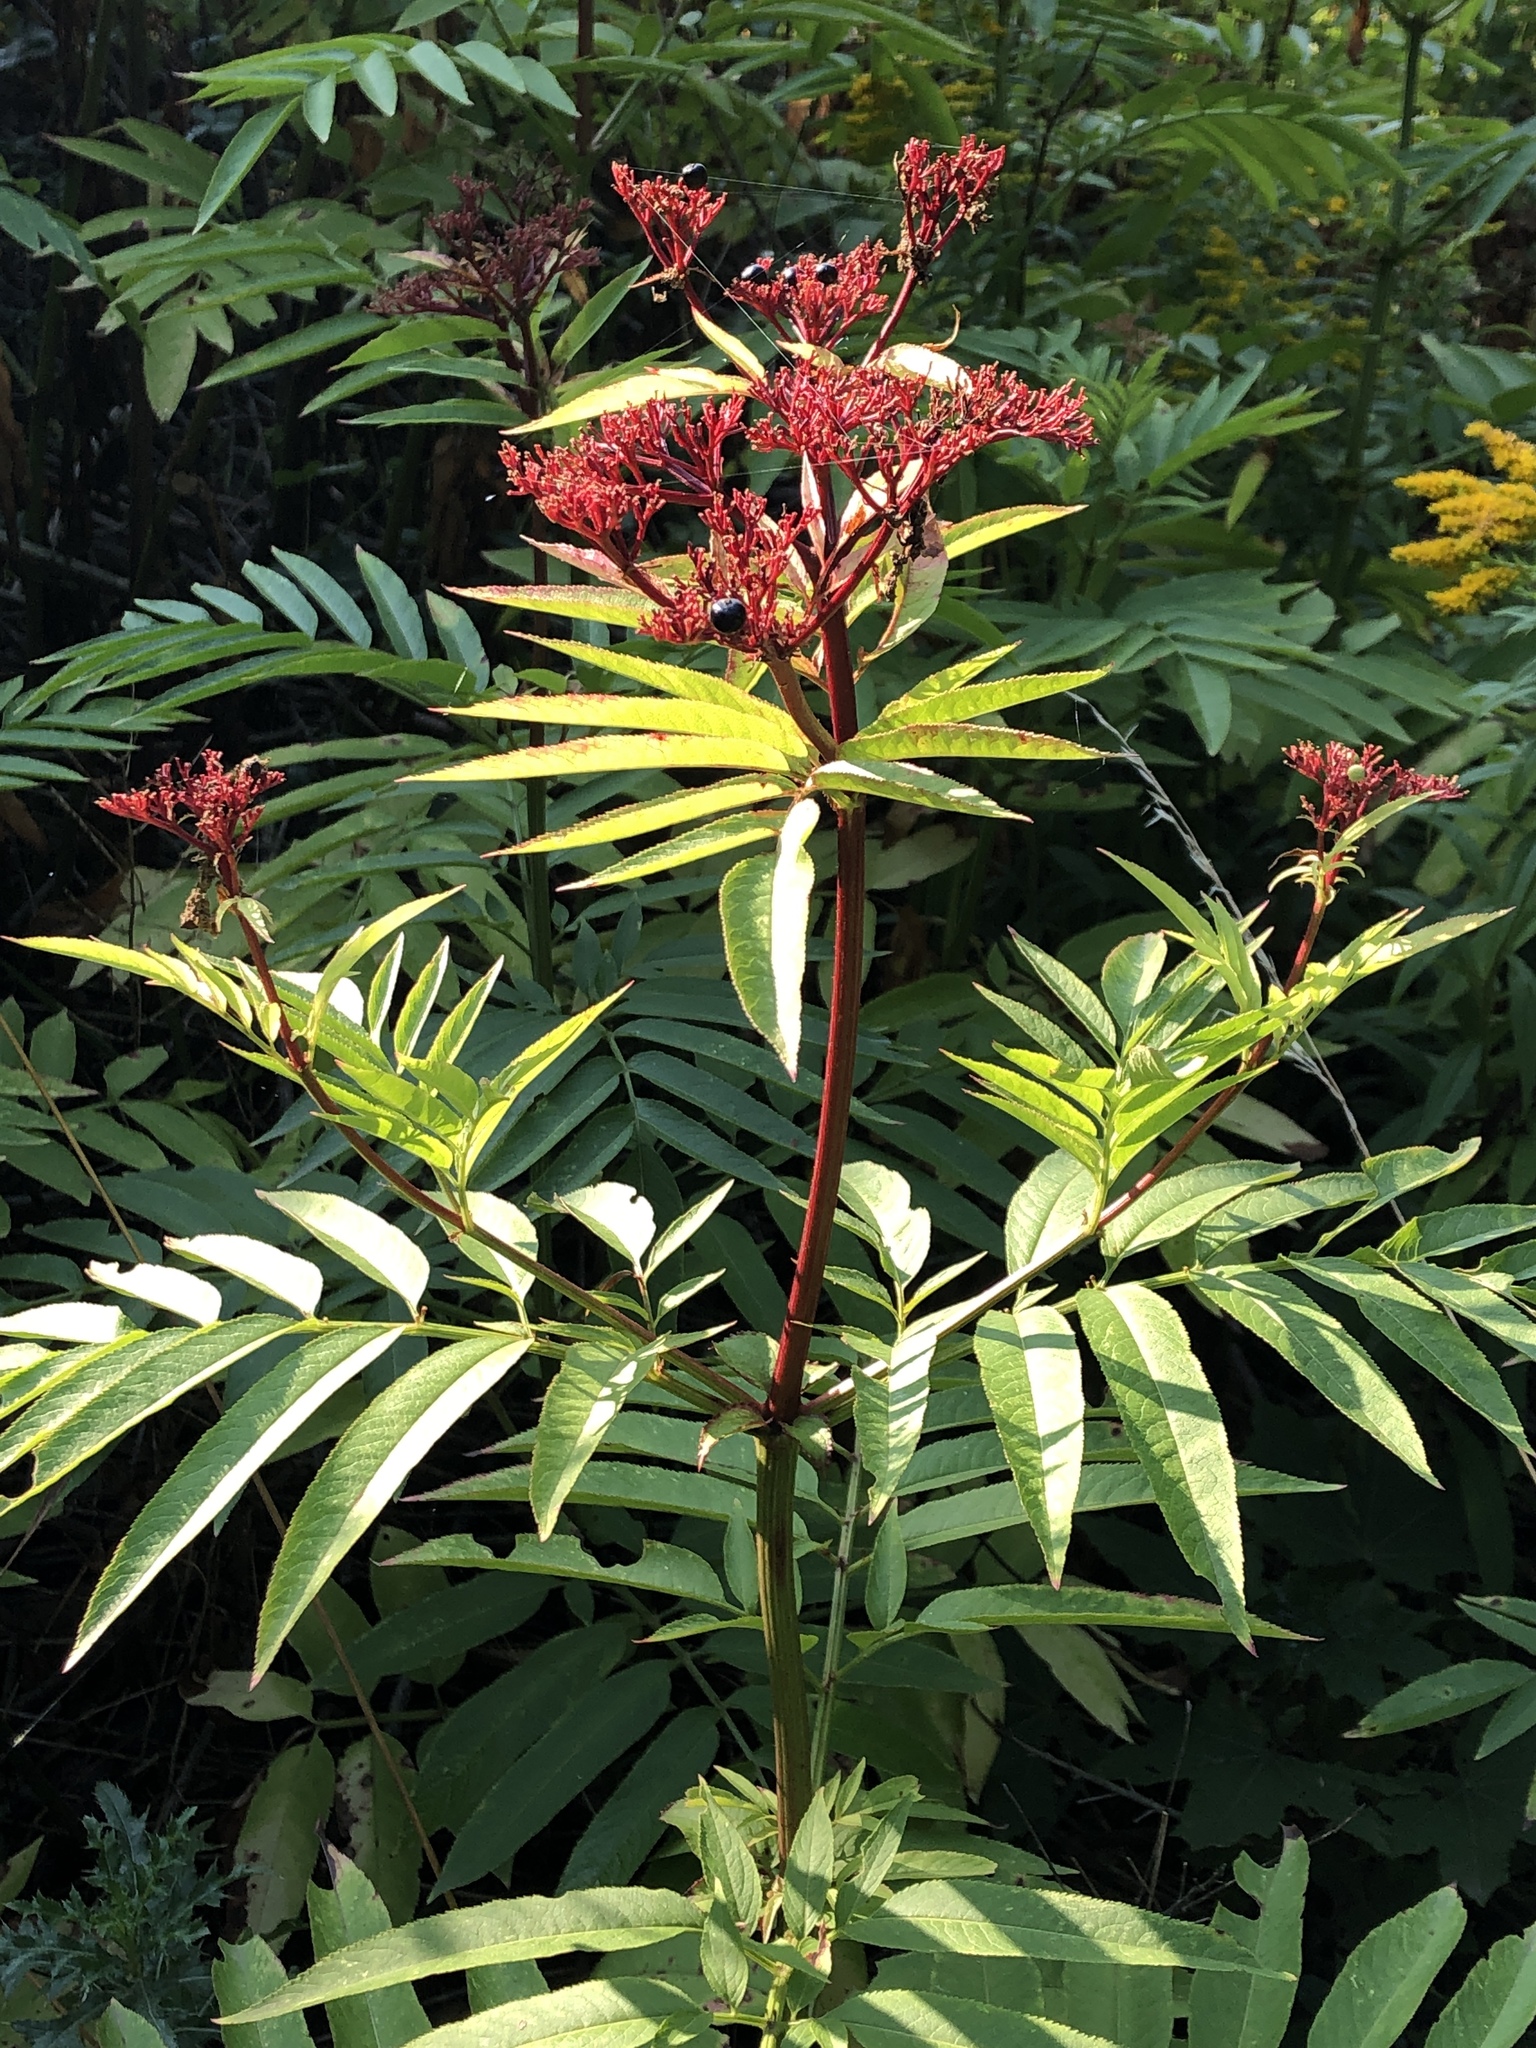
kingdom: Plantae
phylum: Tracheophyta
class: Magnoliopsida
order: Dipsacales
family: Viburnaceae
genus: Sambucus
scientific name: Sambucus ebulus
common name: Dwarf elder
